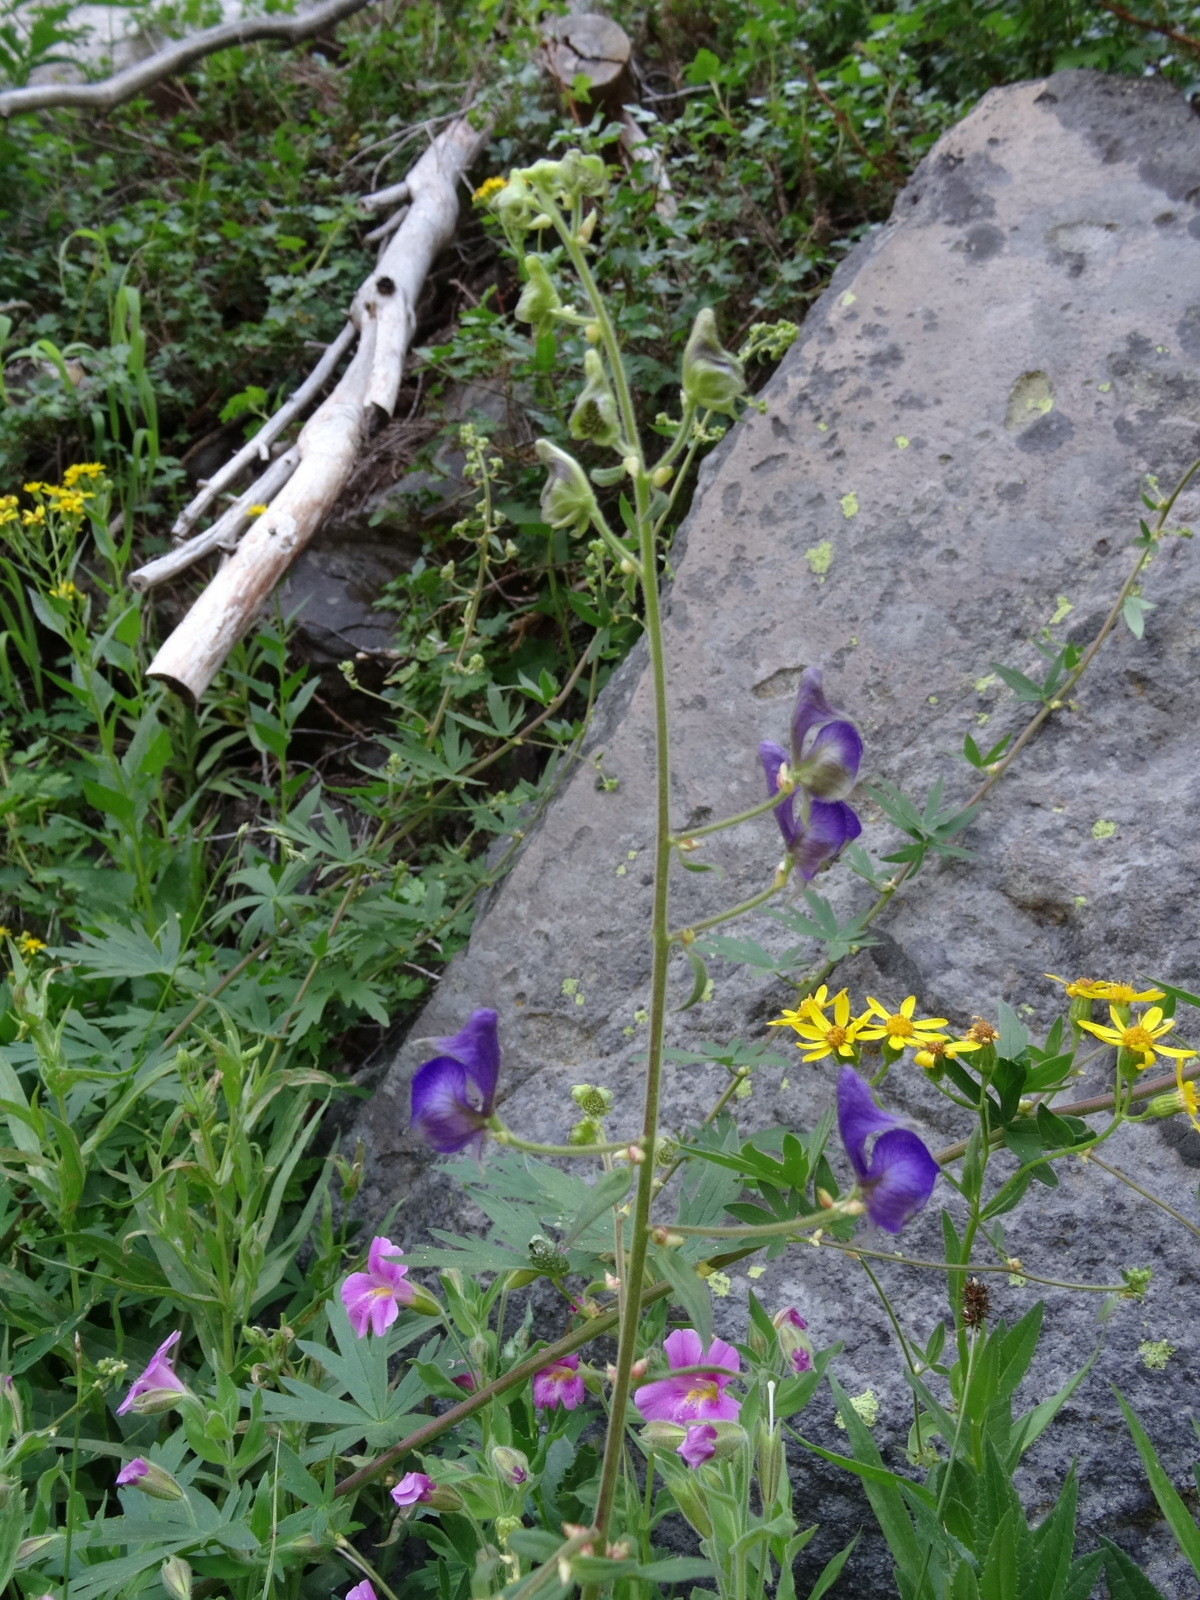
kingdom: Plantae
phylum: Tracheophyta
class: Magnoliopsida
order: Ranunculales
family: Ranunculaceae
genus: Aconitum
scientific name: Aconitum columbianum
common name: Columbia aconite
